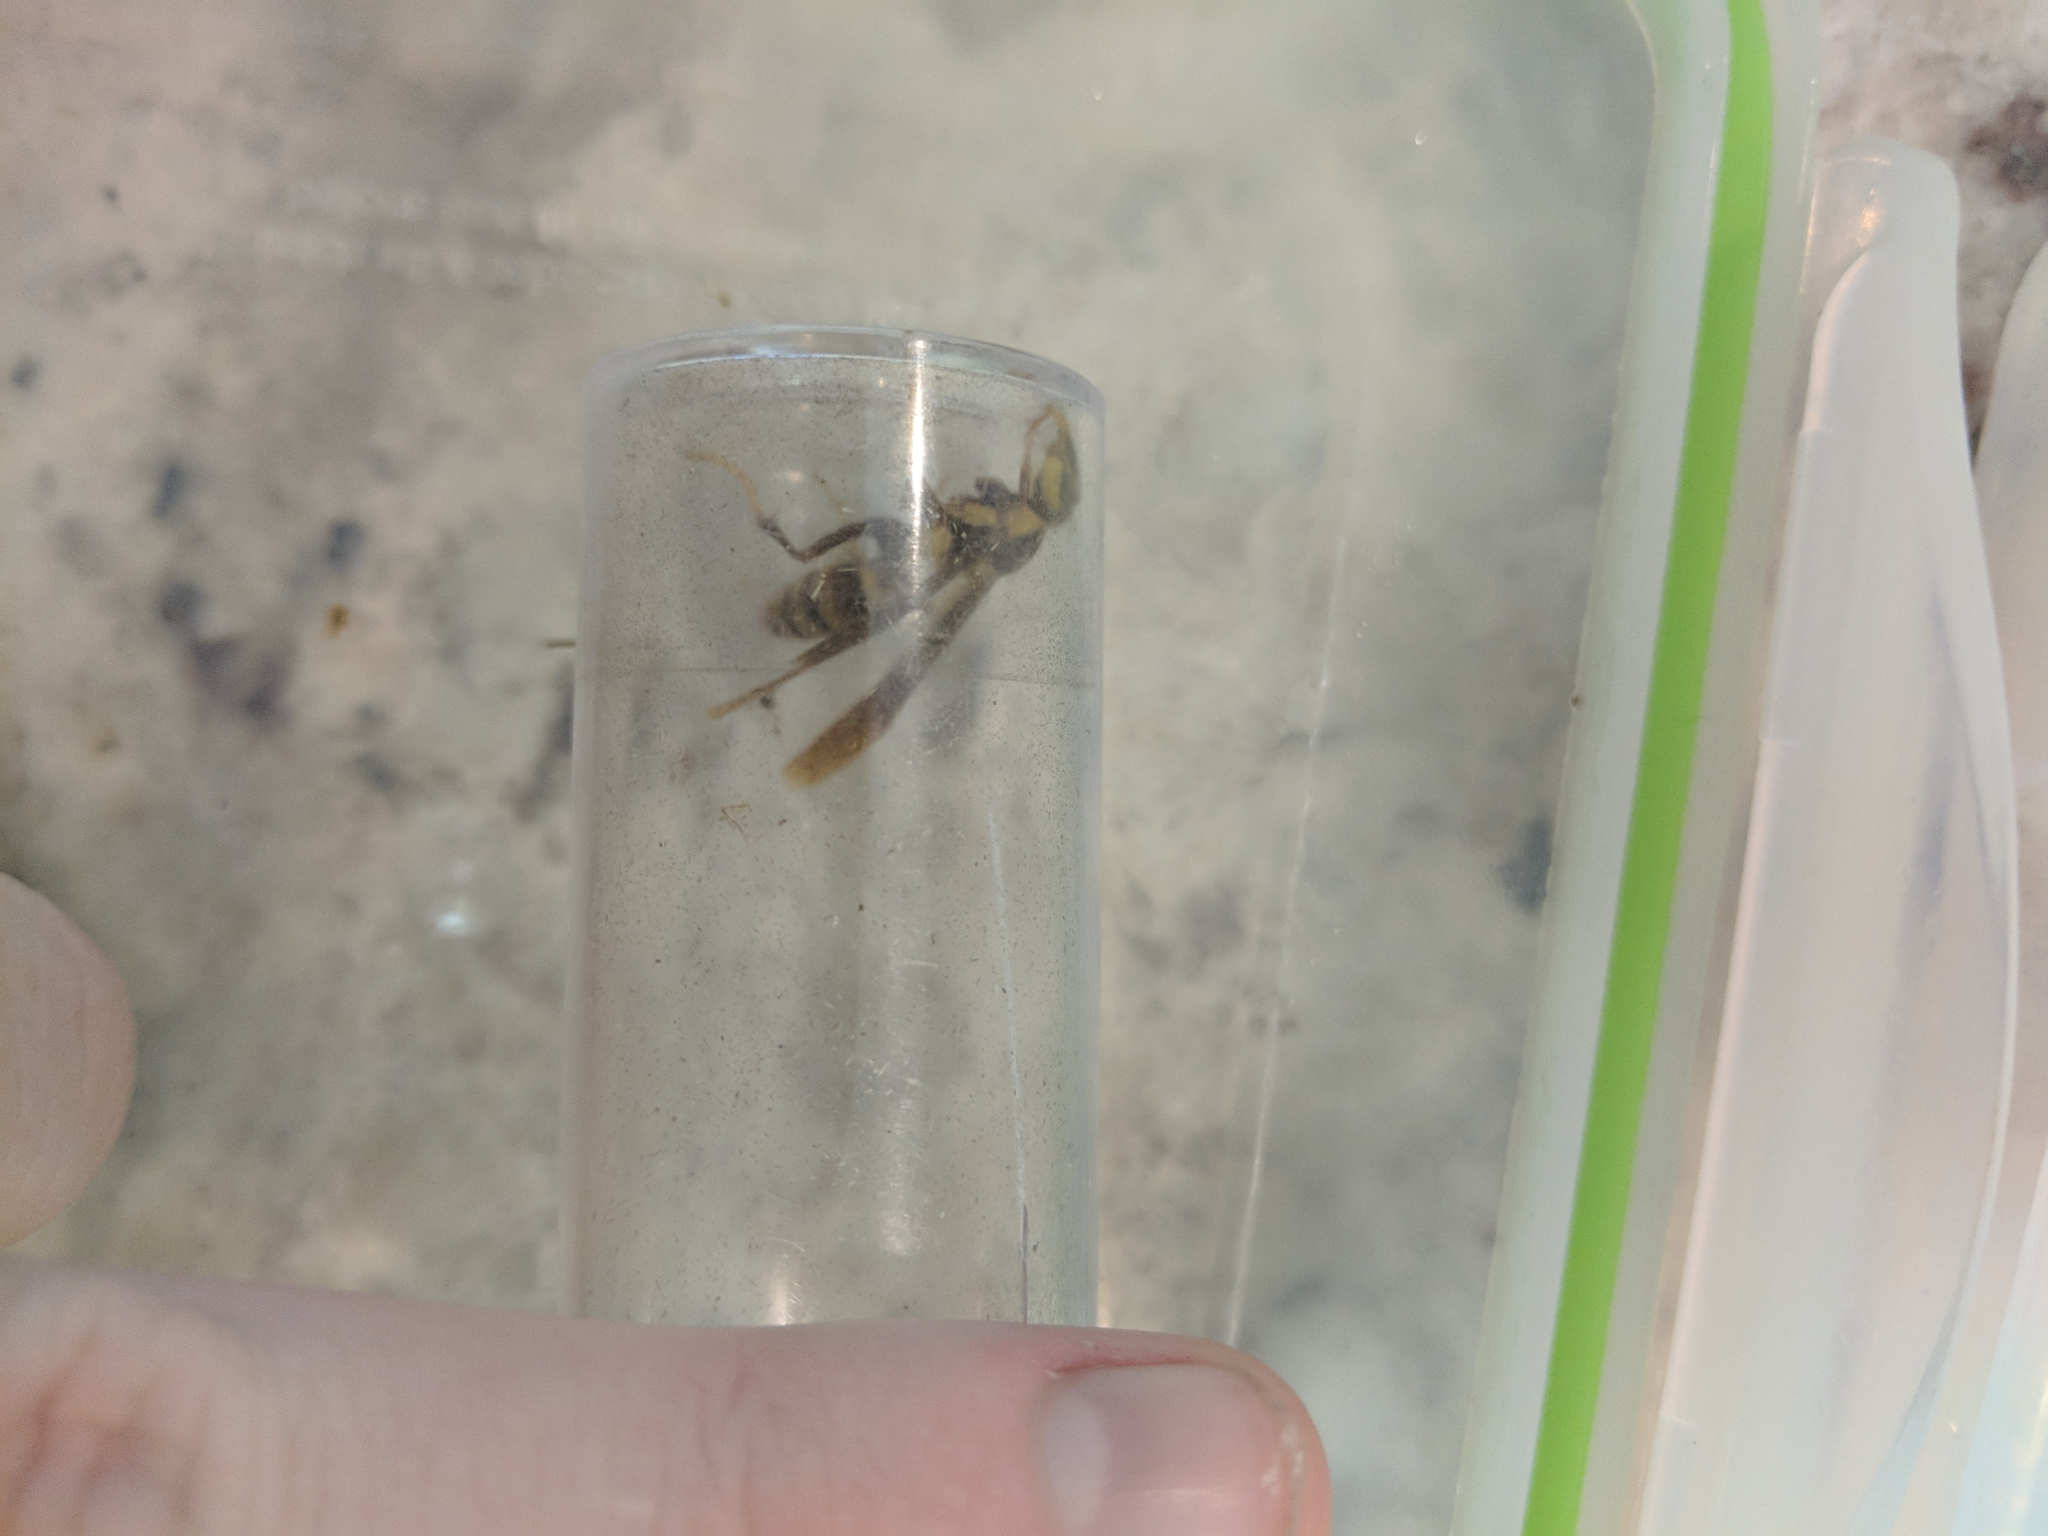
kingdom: Animalia
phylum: Arthropoda
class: Insecta
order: Hymenoptera
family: Eumenidae
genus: Polistes
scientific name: Polistes major
